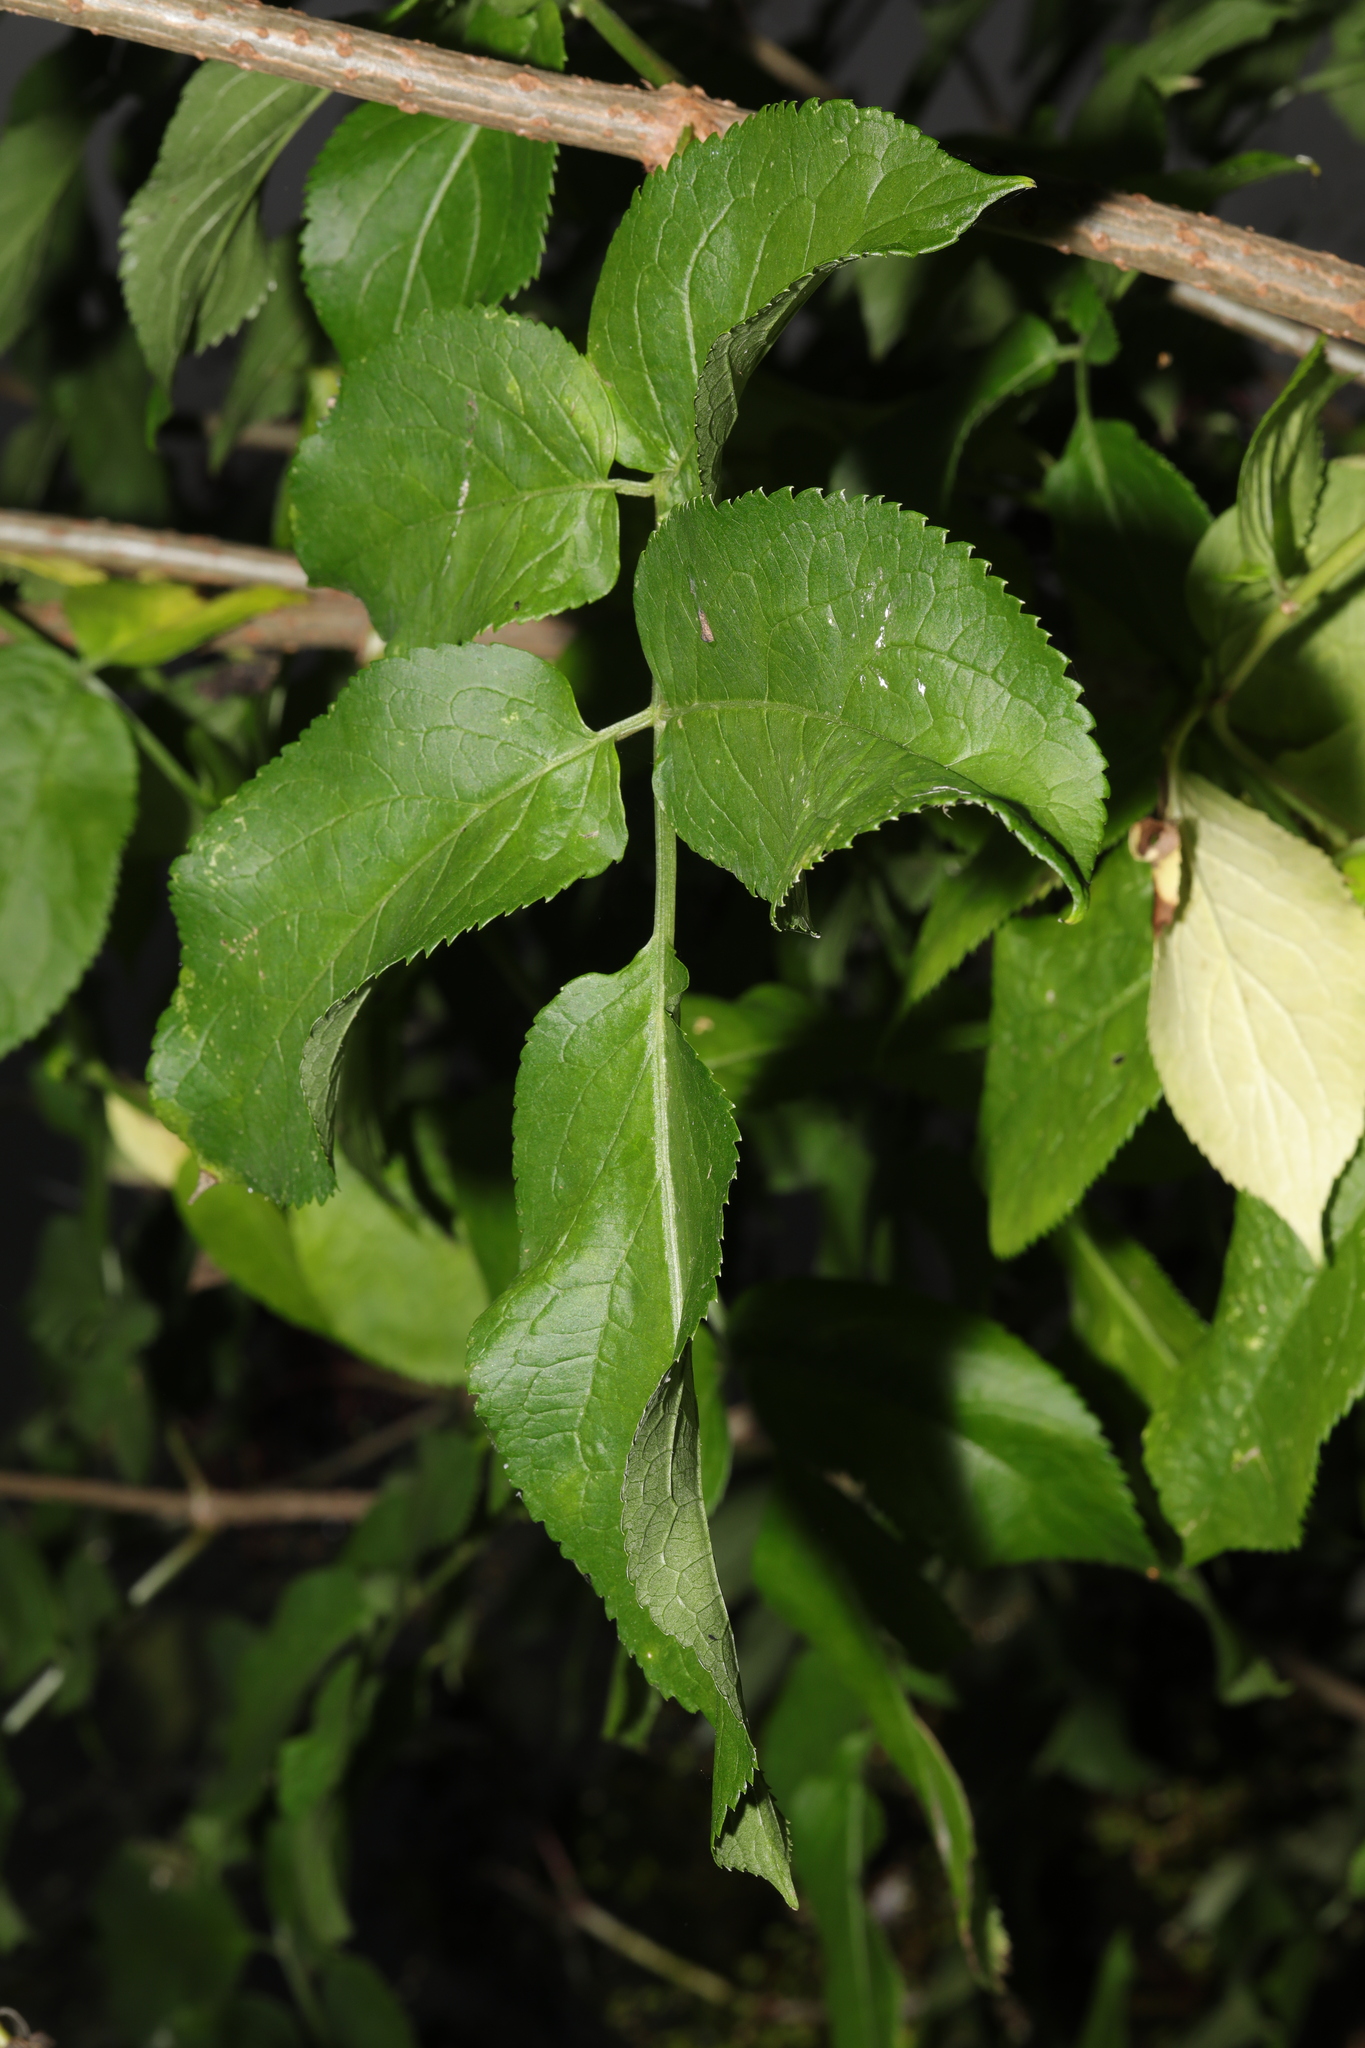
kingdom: Plantae
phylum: Tracheophyta
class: Magnoliopsida
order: Dipsacales
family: Viburnaceae
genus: Sambucus
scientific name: Sambucus nigra
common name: Elder
